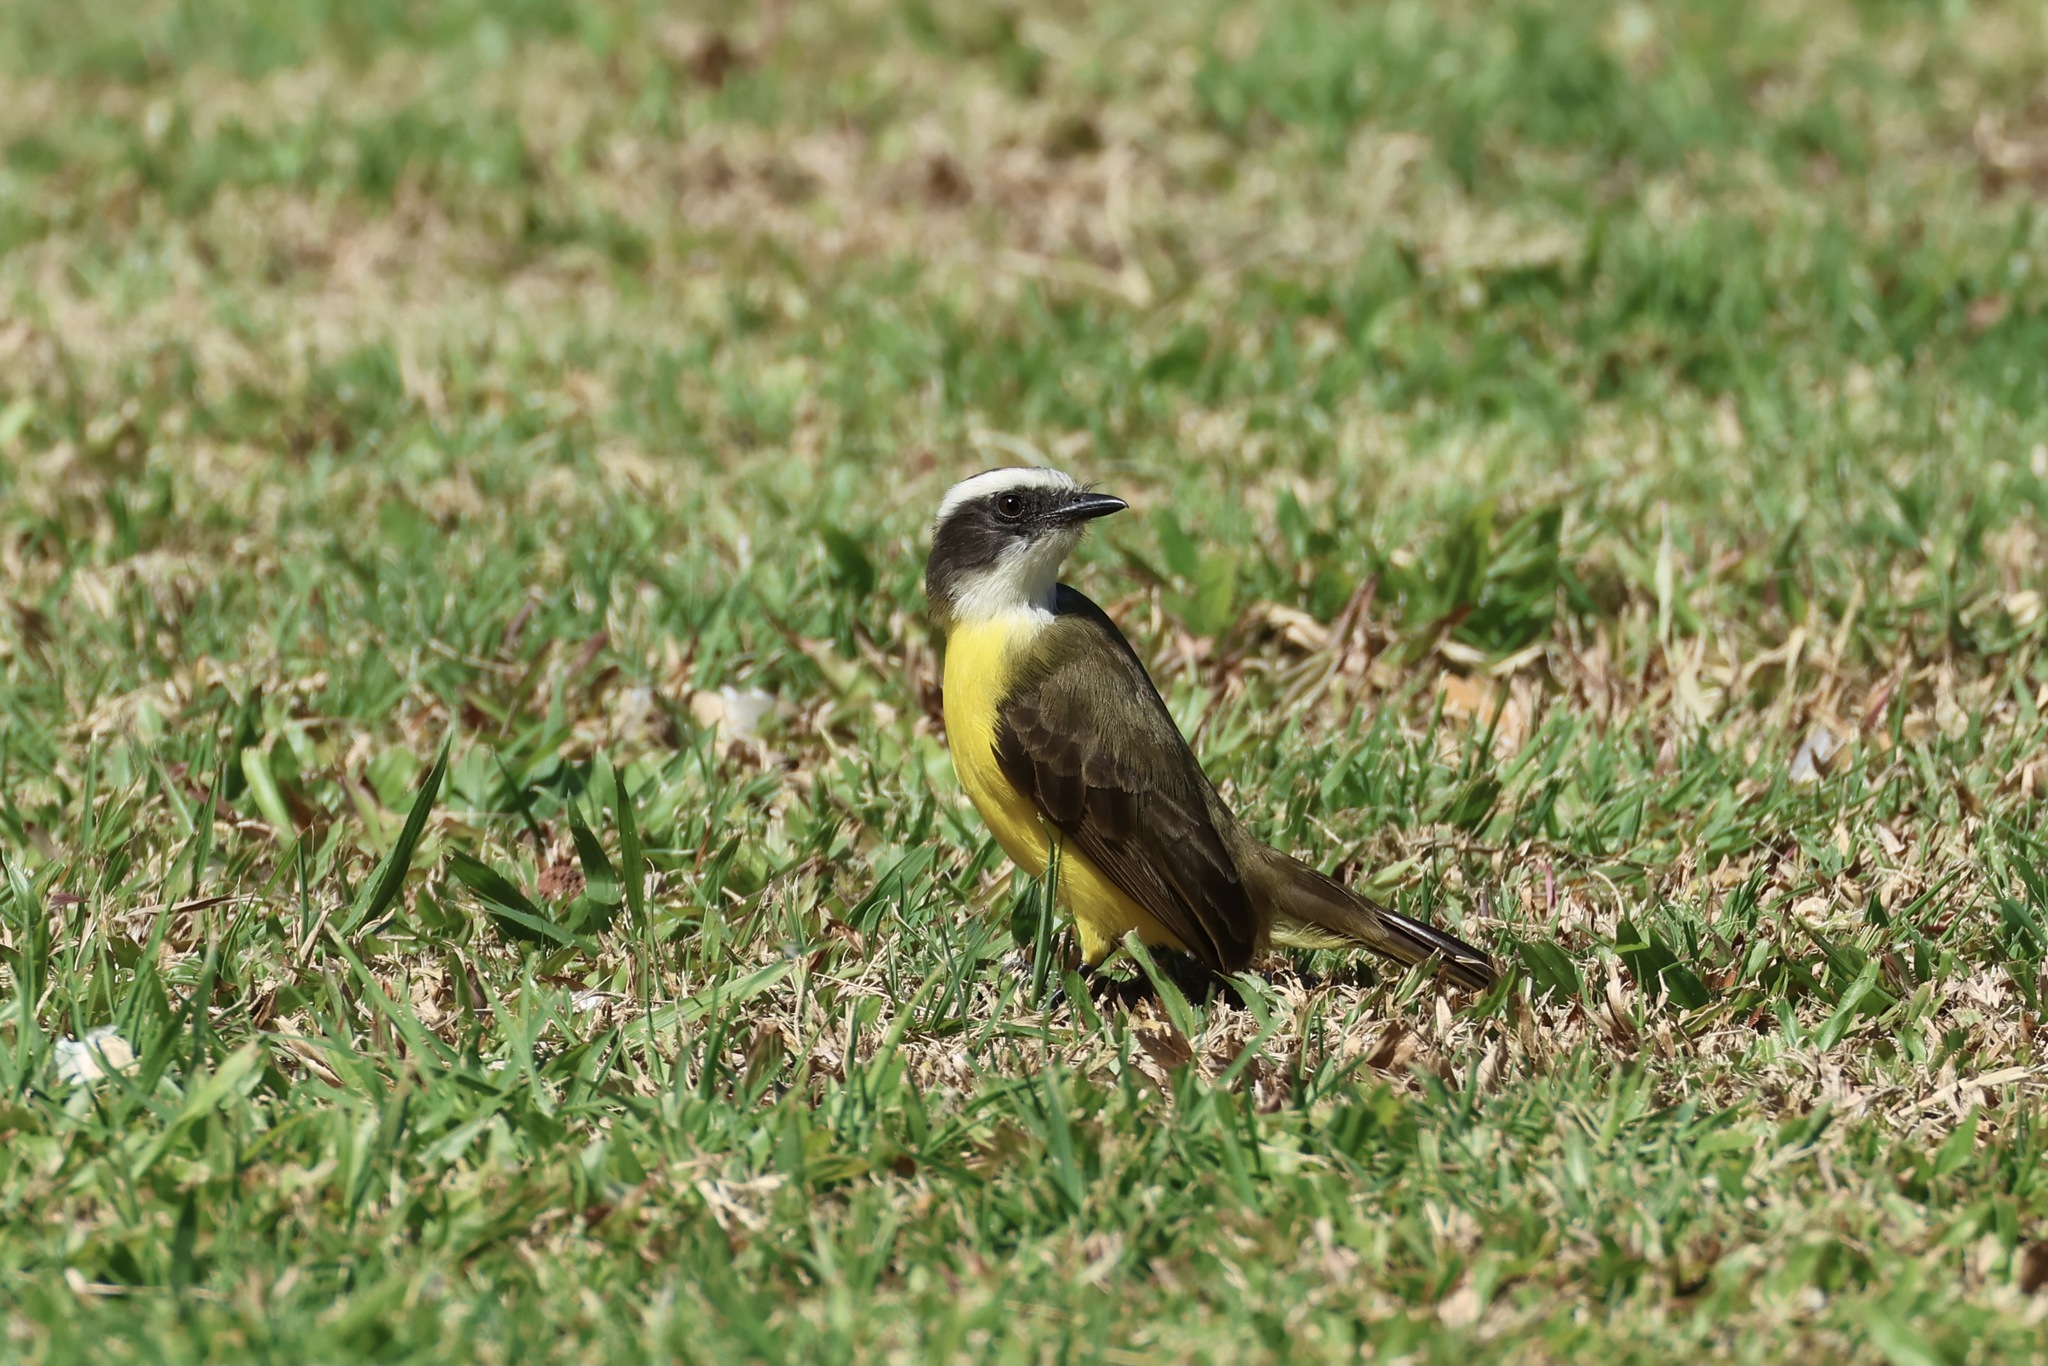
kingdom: Animalia
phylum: Chordata
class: Aves
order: Passeriformes
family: Tyrannidae
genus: Myiozetetes
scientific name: Myiozetetes similis
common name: Social flycatcher
